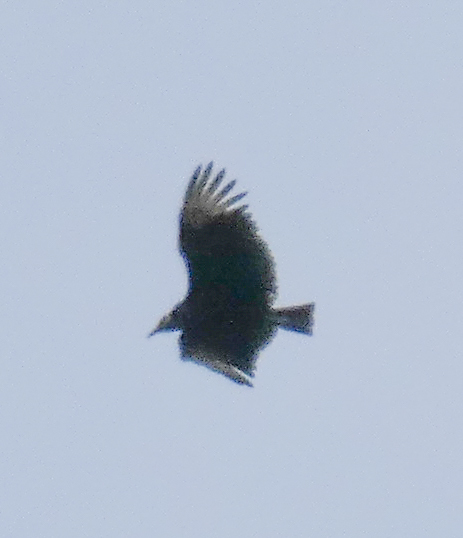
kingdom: Animalia
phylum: Chordata
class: Aves
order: Accipitriformes
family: Cathartidae
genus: Coragyps
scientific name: Coragyps atratus
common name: Black vulture
